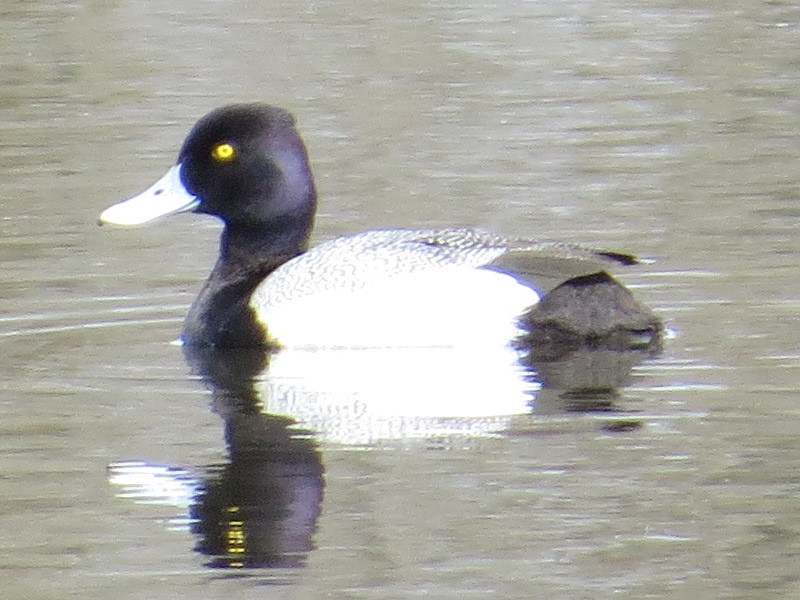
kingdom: Animalia
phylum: Chordata
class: Aves
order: Anseriformes
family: Anatidae
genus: Aythya
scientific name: Aythya affinis
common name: Lesser scaup
